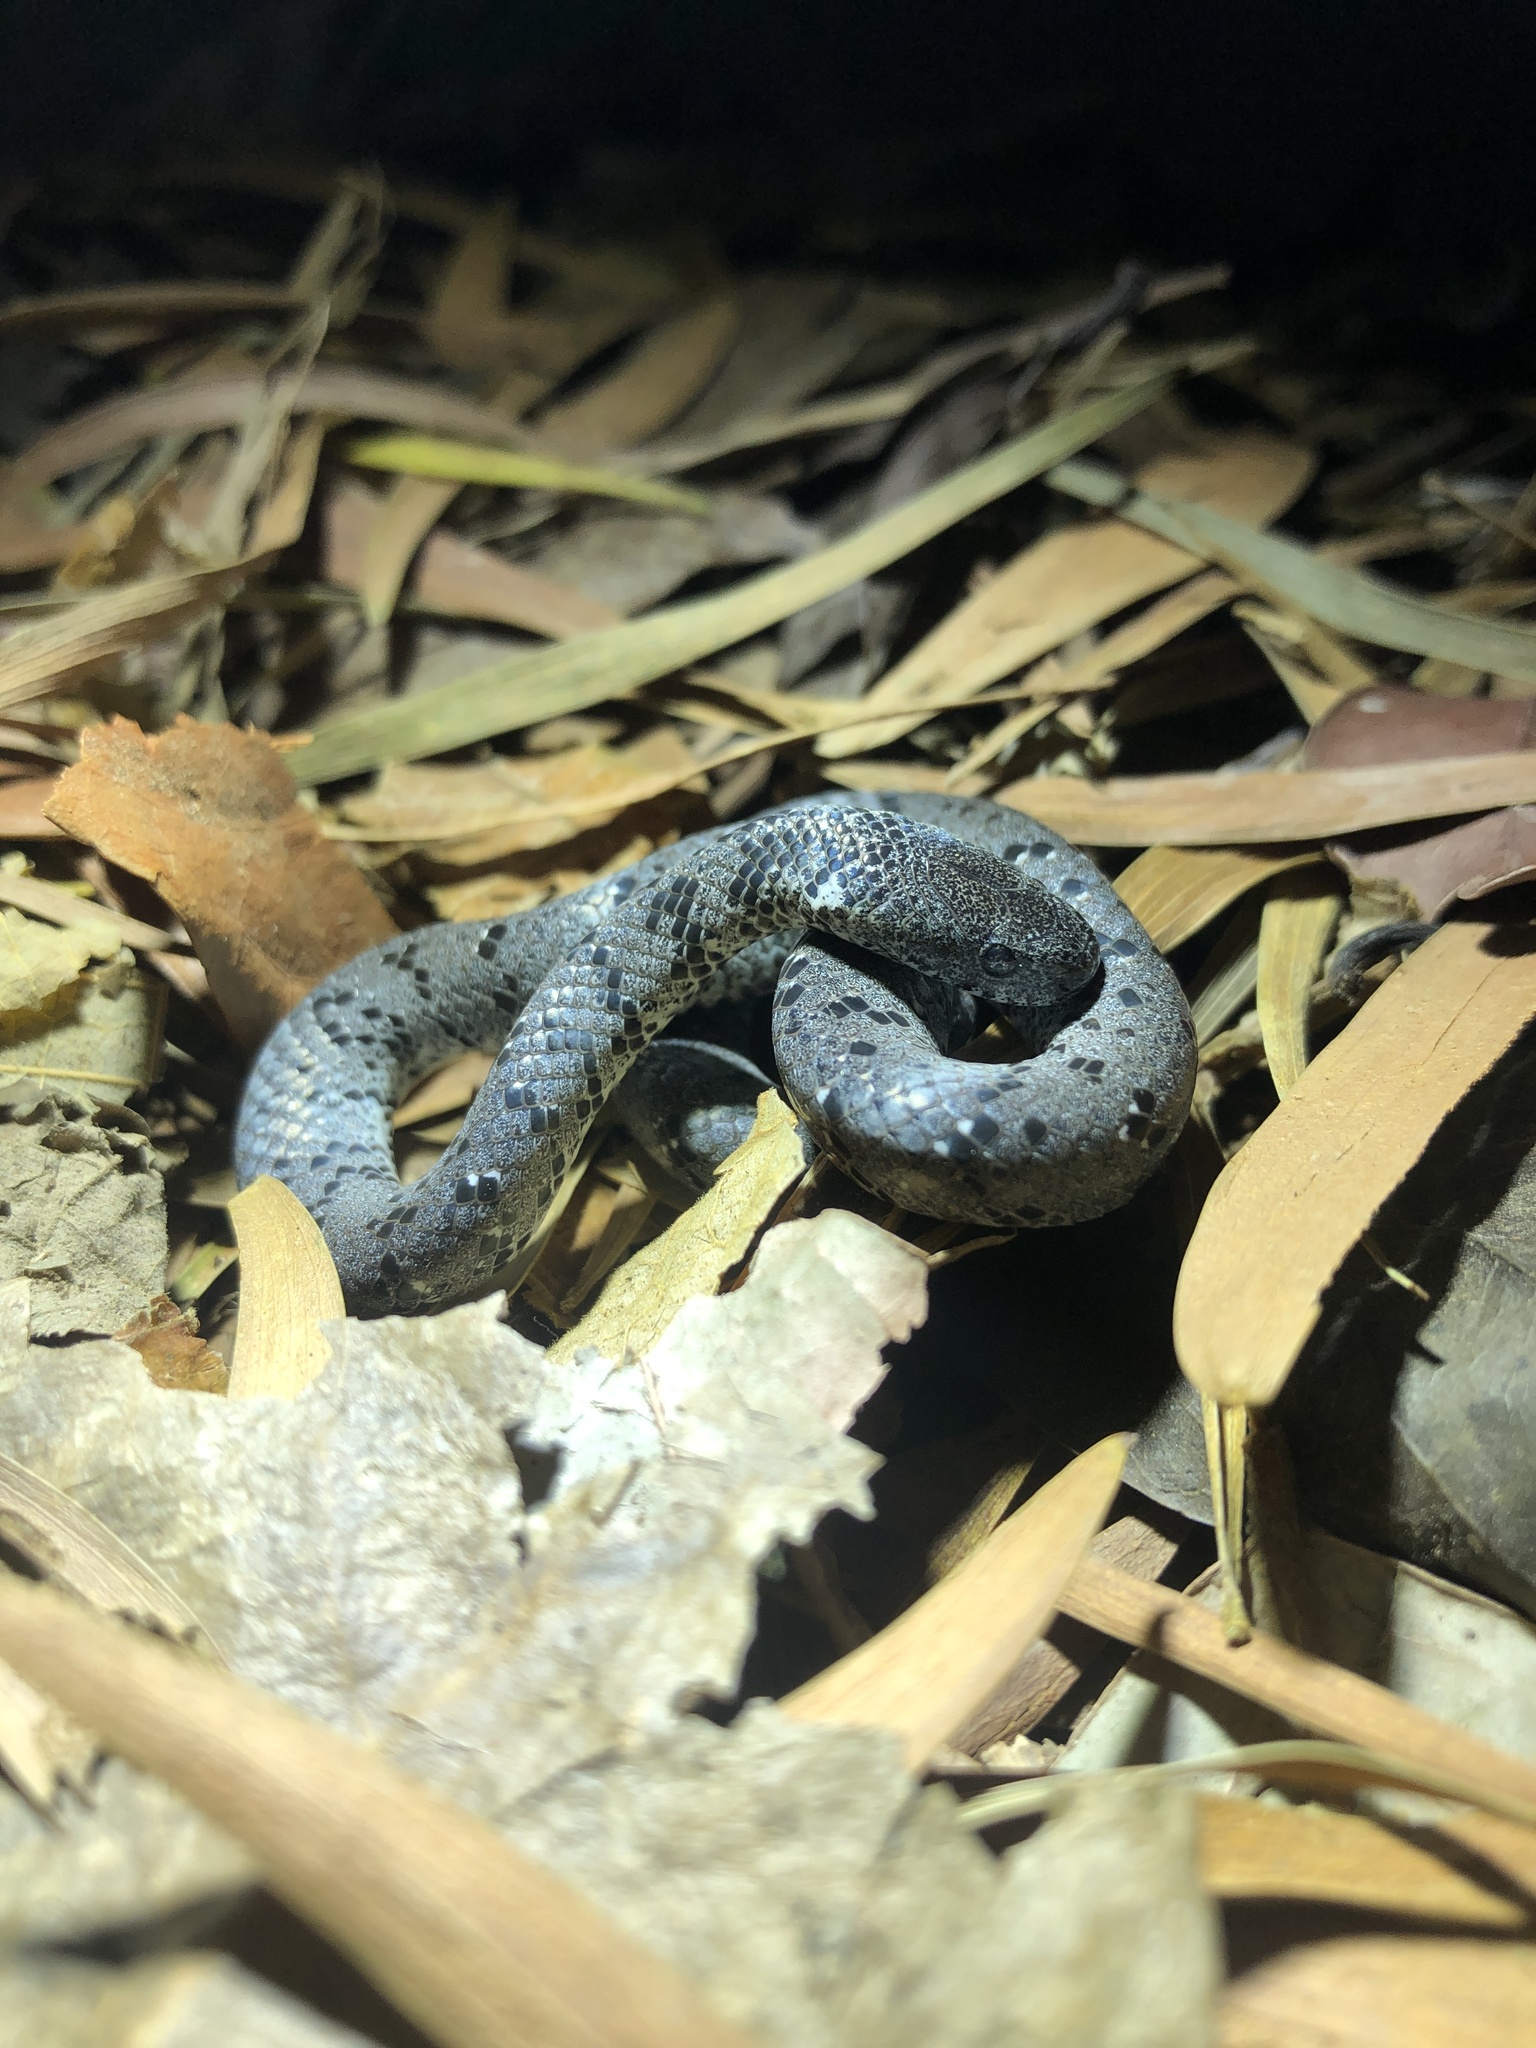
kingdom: Animalia
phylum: Chordata
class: Squamata
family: Pareidae
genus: Pareas
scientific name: Pareas margaritophorus
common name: Mountain slug snake
